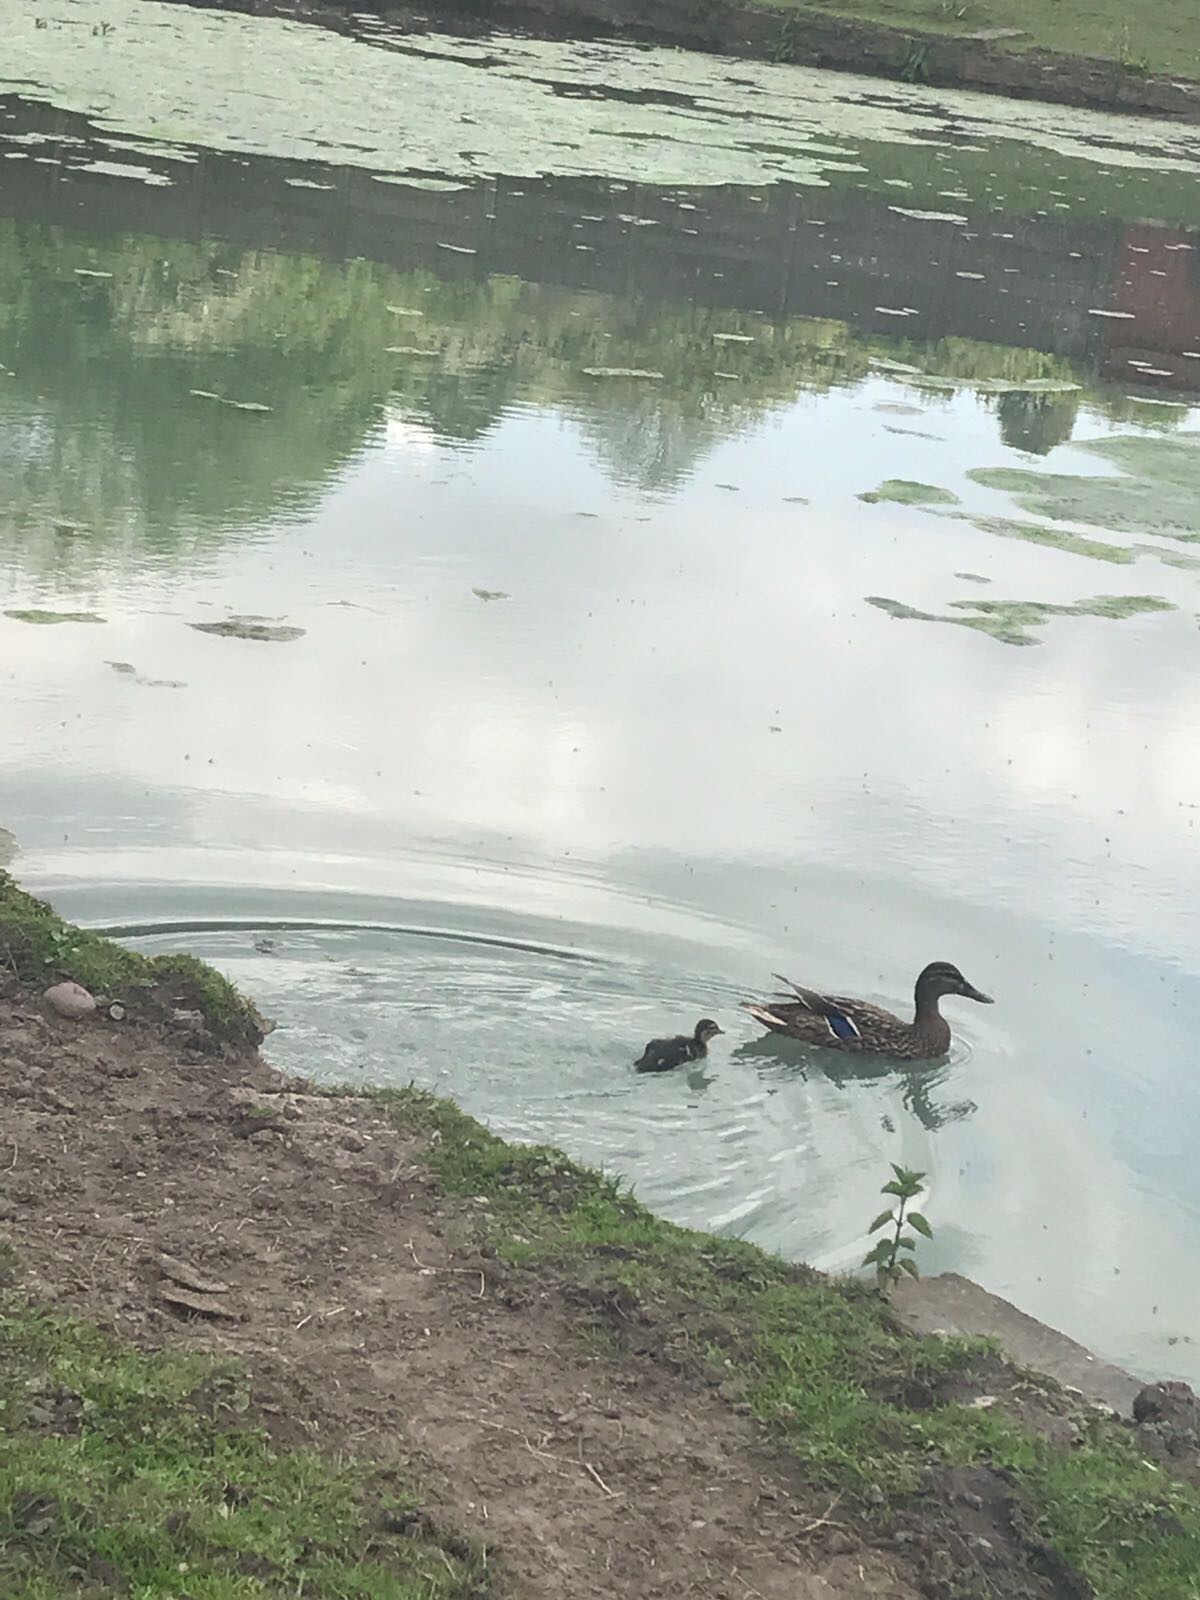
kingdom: Animalia
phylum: Chordata
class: Aves
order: Anseriformes
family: Anatidae
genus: Anas
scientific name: Anas platyrhynchos
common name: Mallard
